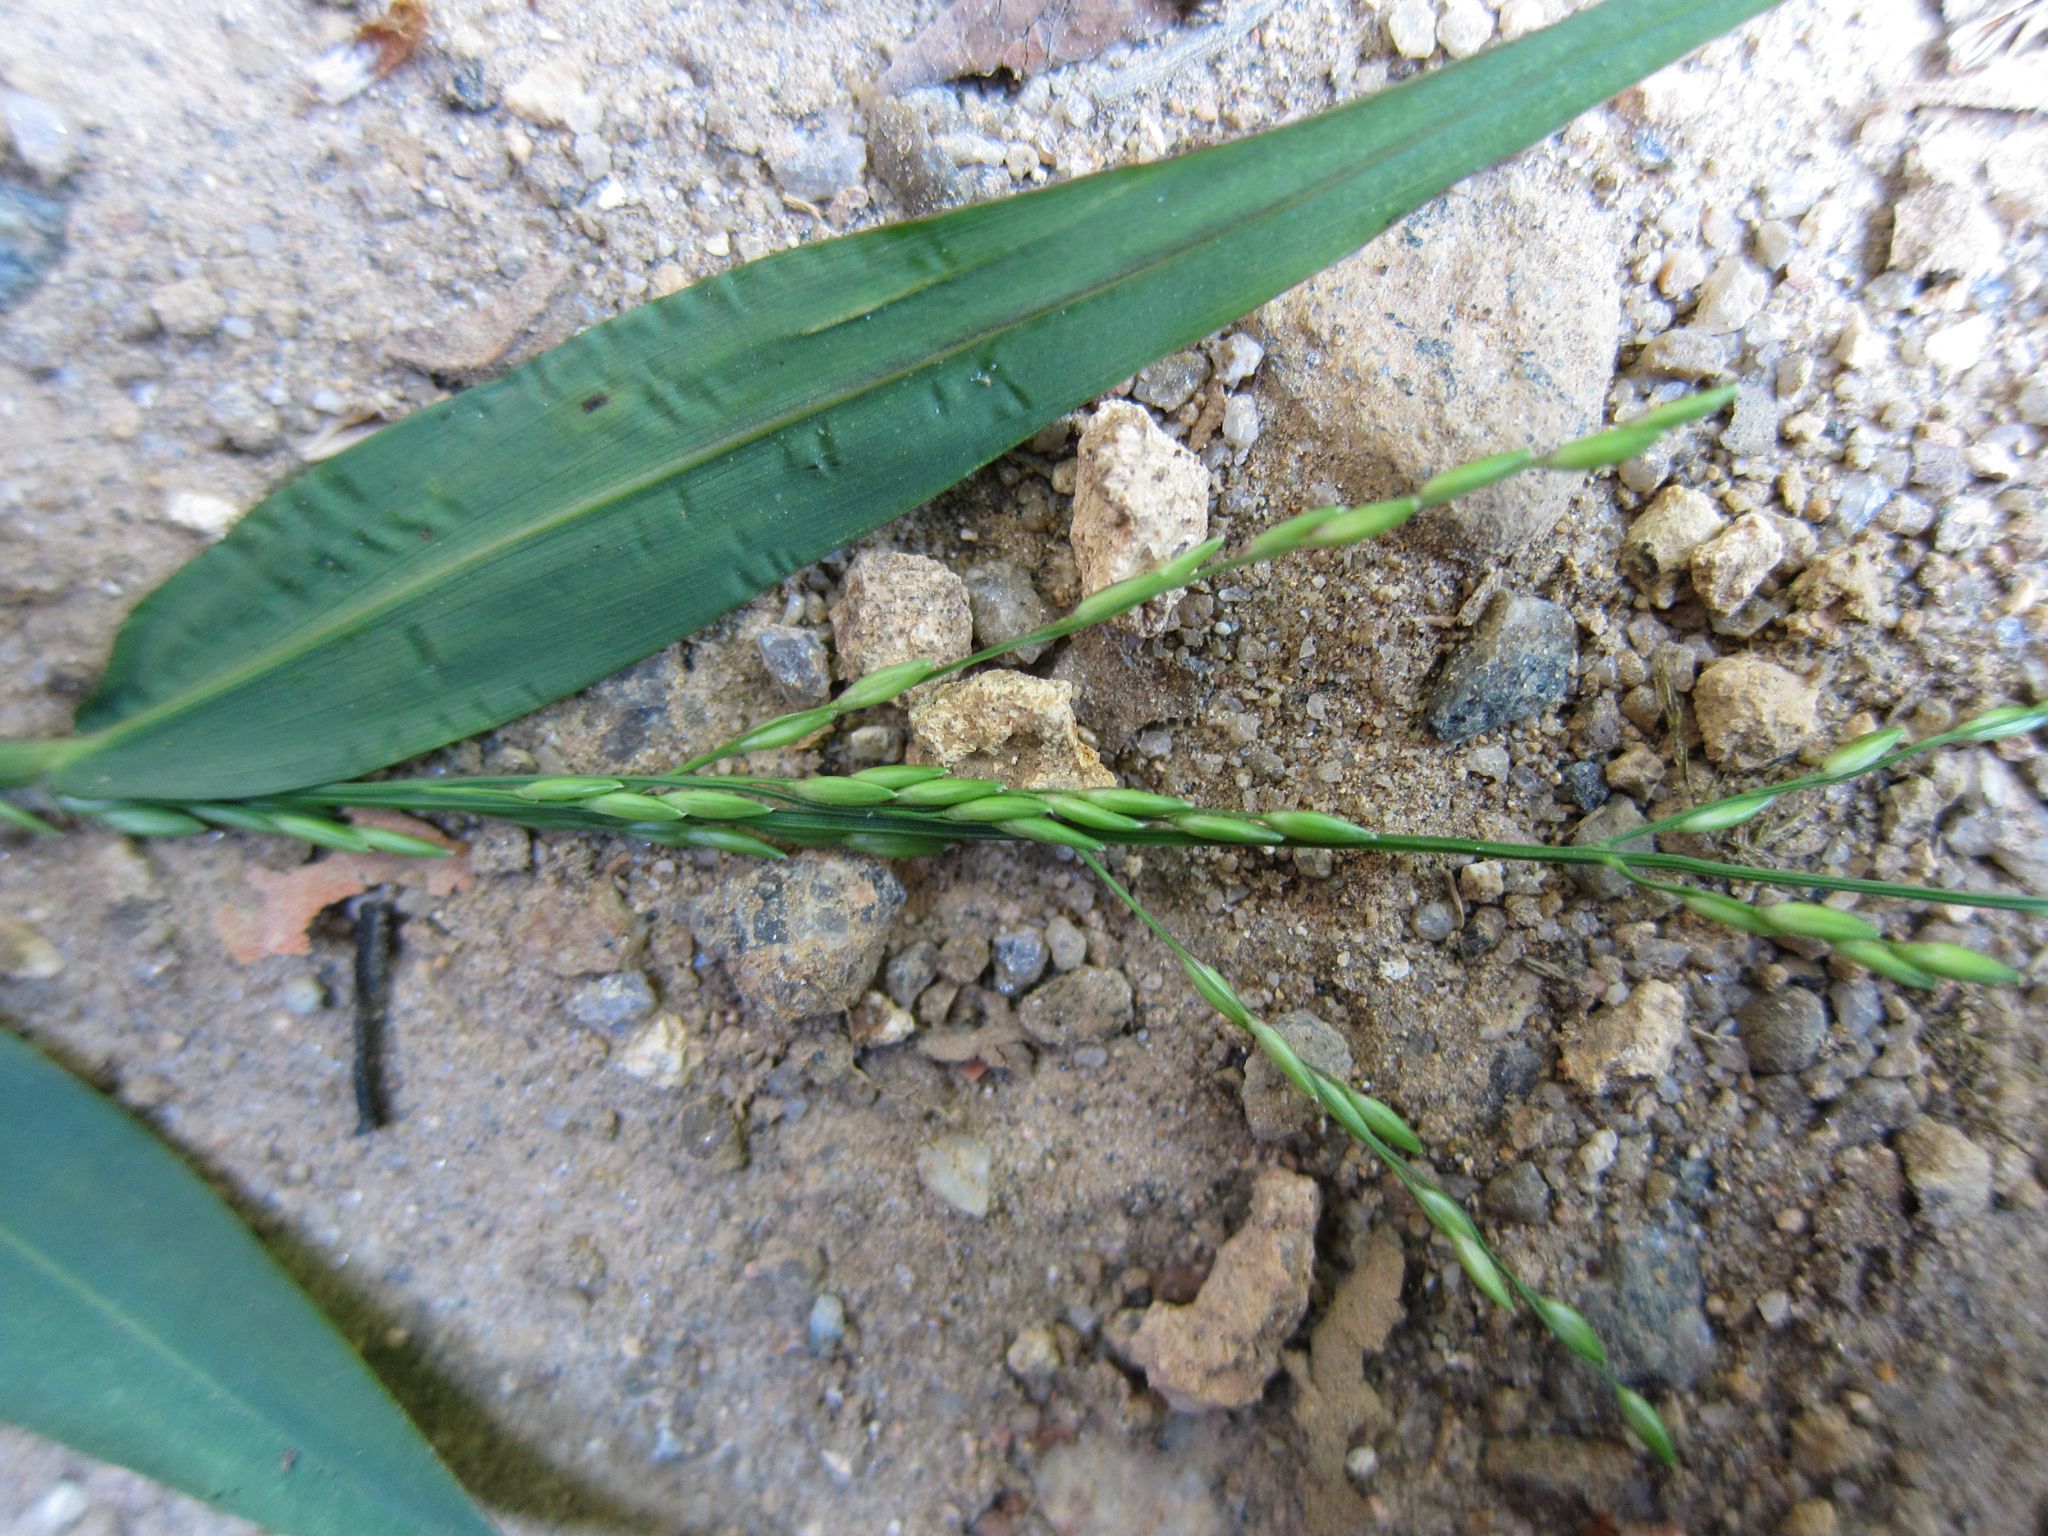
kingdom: Plantae
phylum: Tracheophyta
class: Liliopsida
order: Poales
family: Poaceae
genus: Urochloa
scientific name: Urochloa Brachiaria tsiafajavonensis
